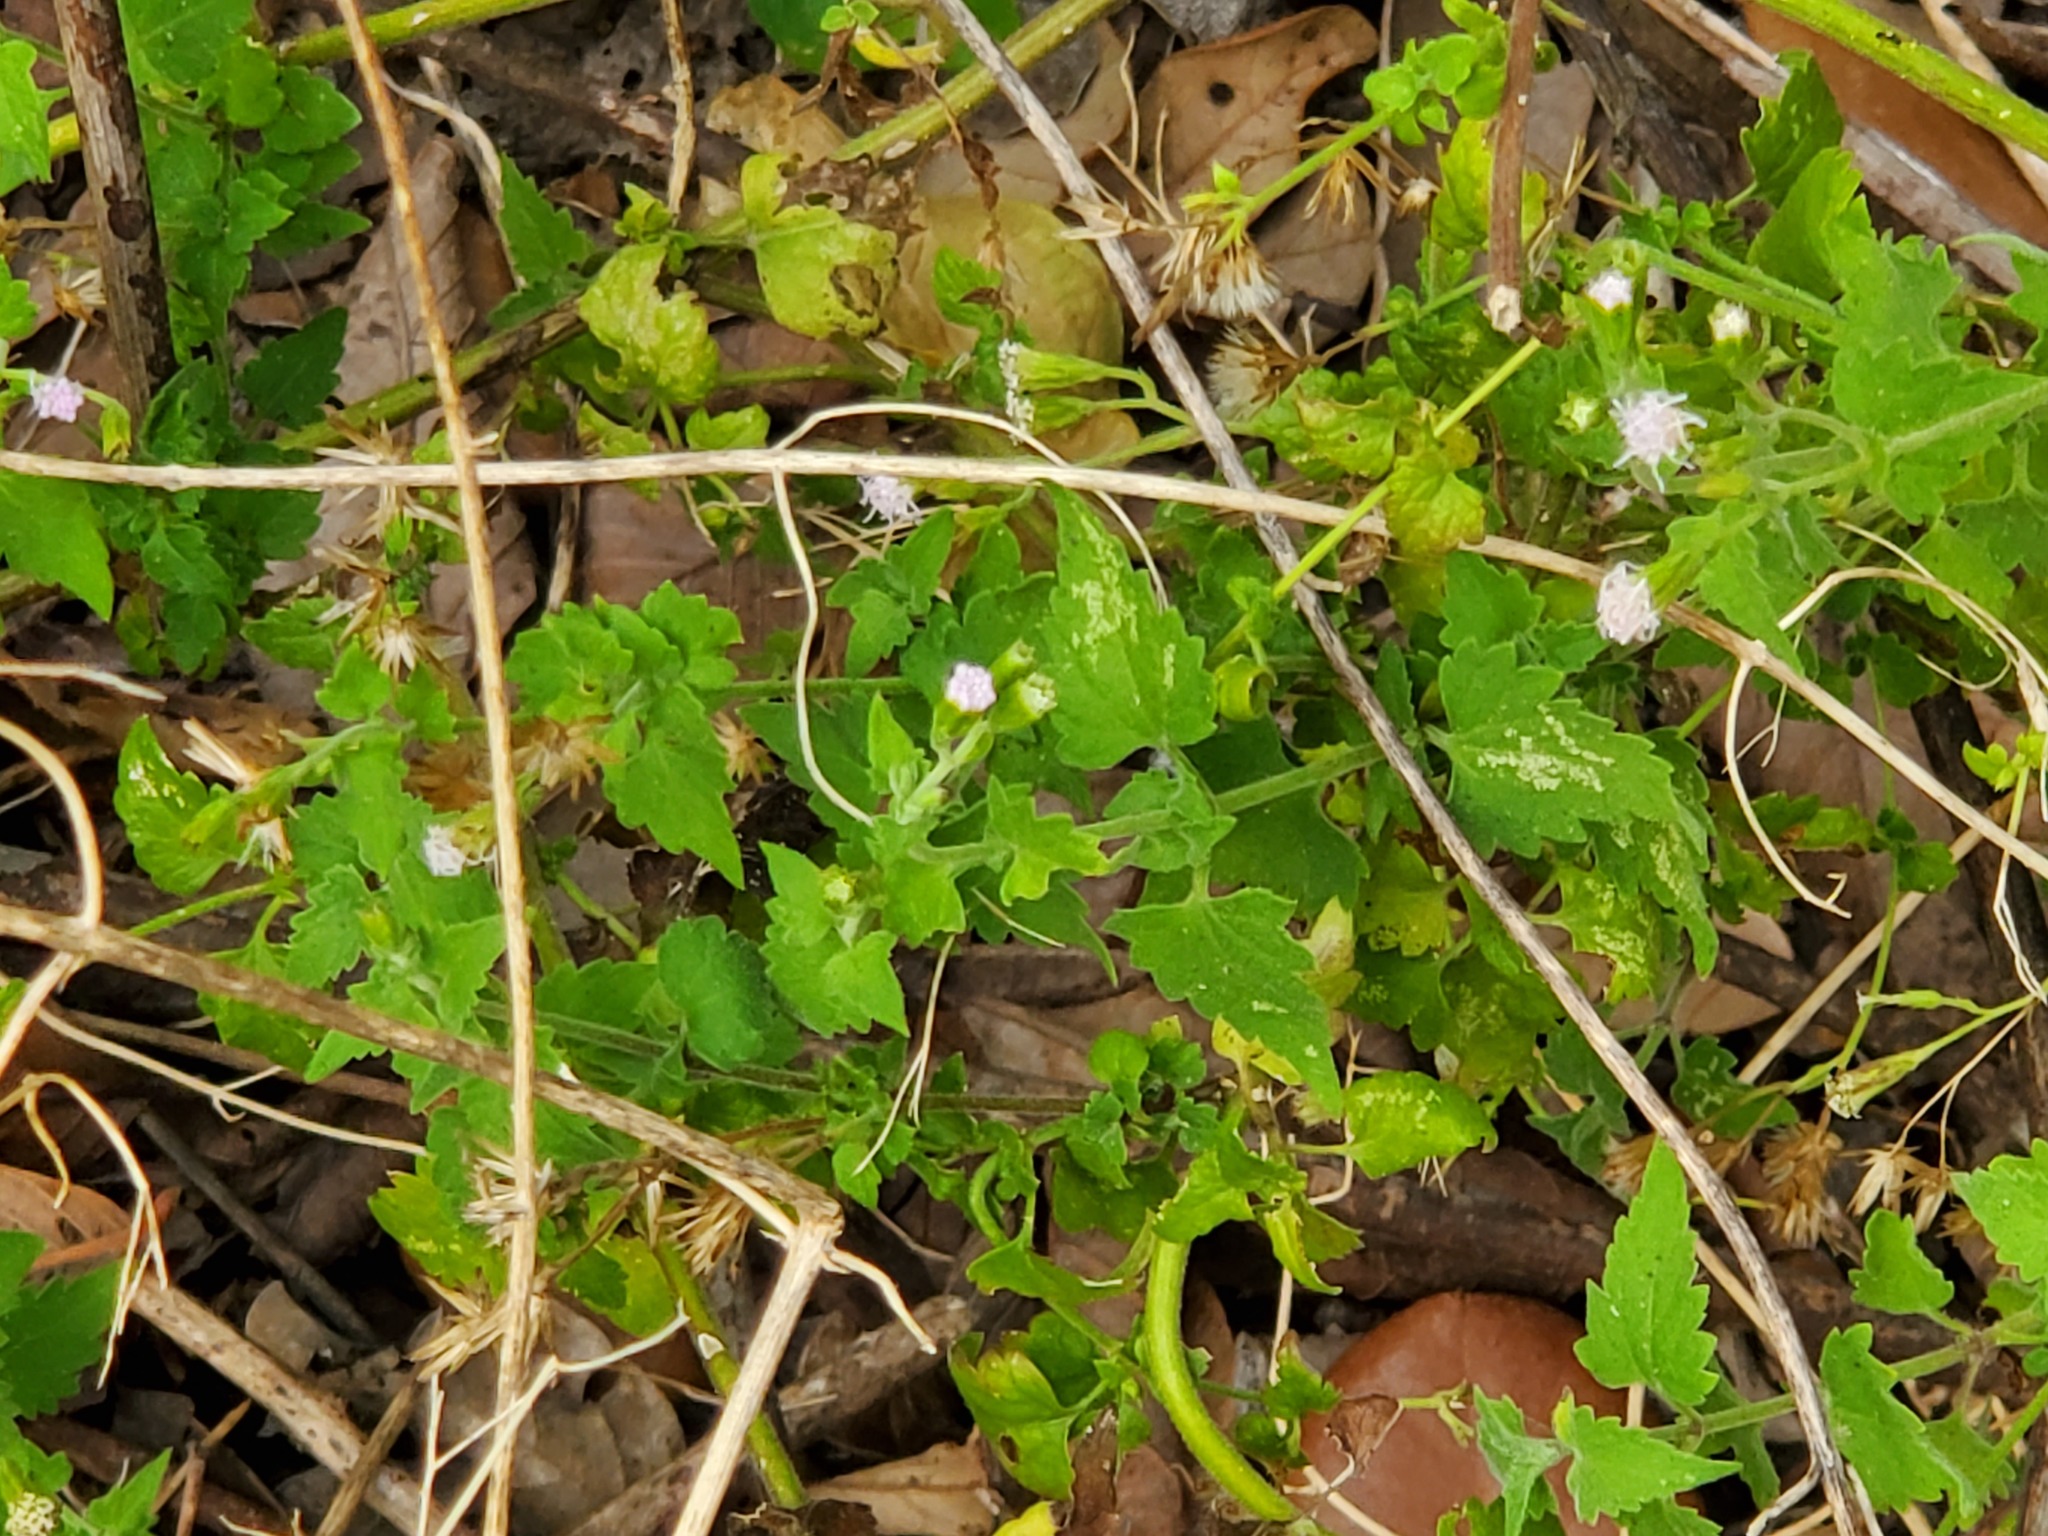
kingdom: Plantae
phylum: Tracheophyta
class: Magnoliopsida
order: Asterales
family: Asteraceae
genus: Fleischmannia
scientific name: Fleischmannia incarnata
